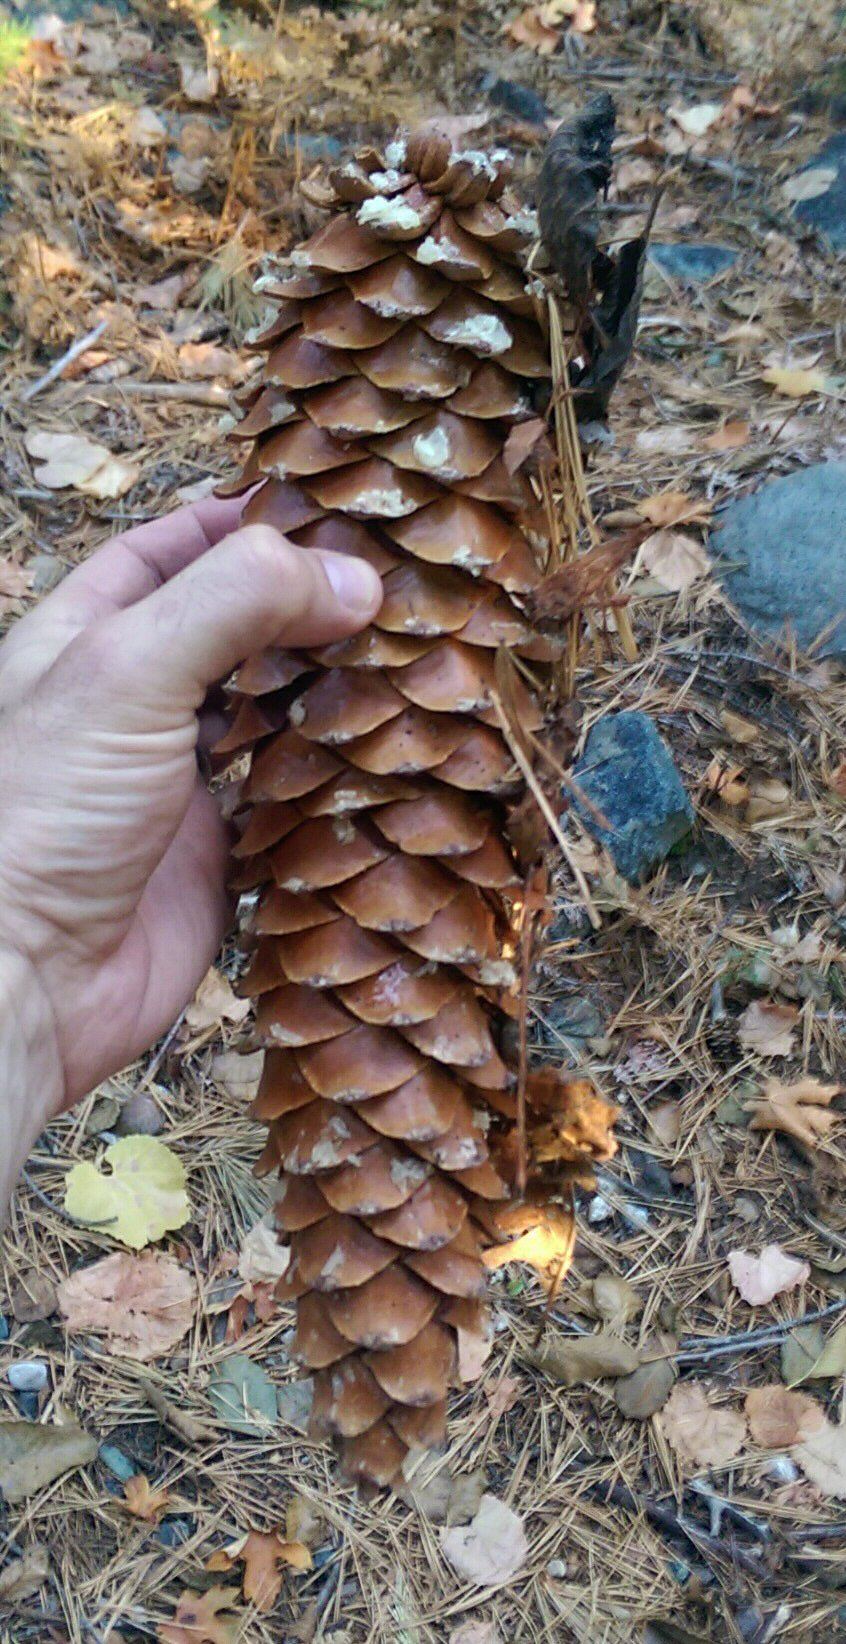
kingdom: Plantae
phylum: Tracheophyta
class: Pinopsida
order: Pinales
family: Pinaceae
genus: Pinus
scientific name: Pinus lambertiana
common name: Sugar pine
